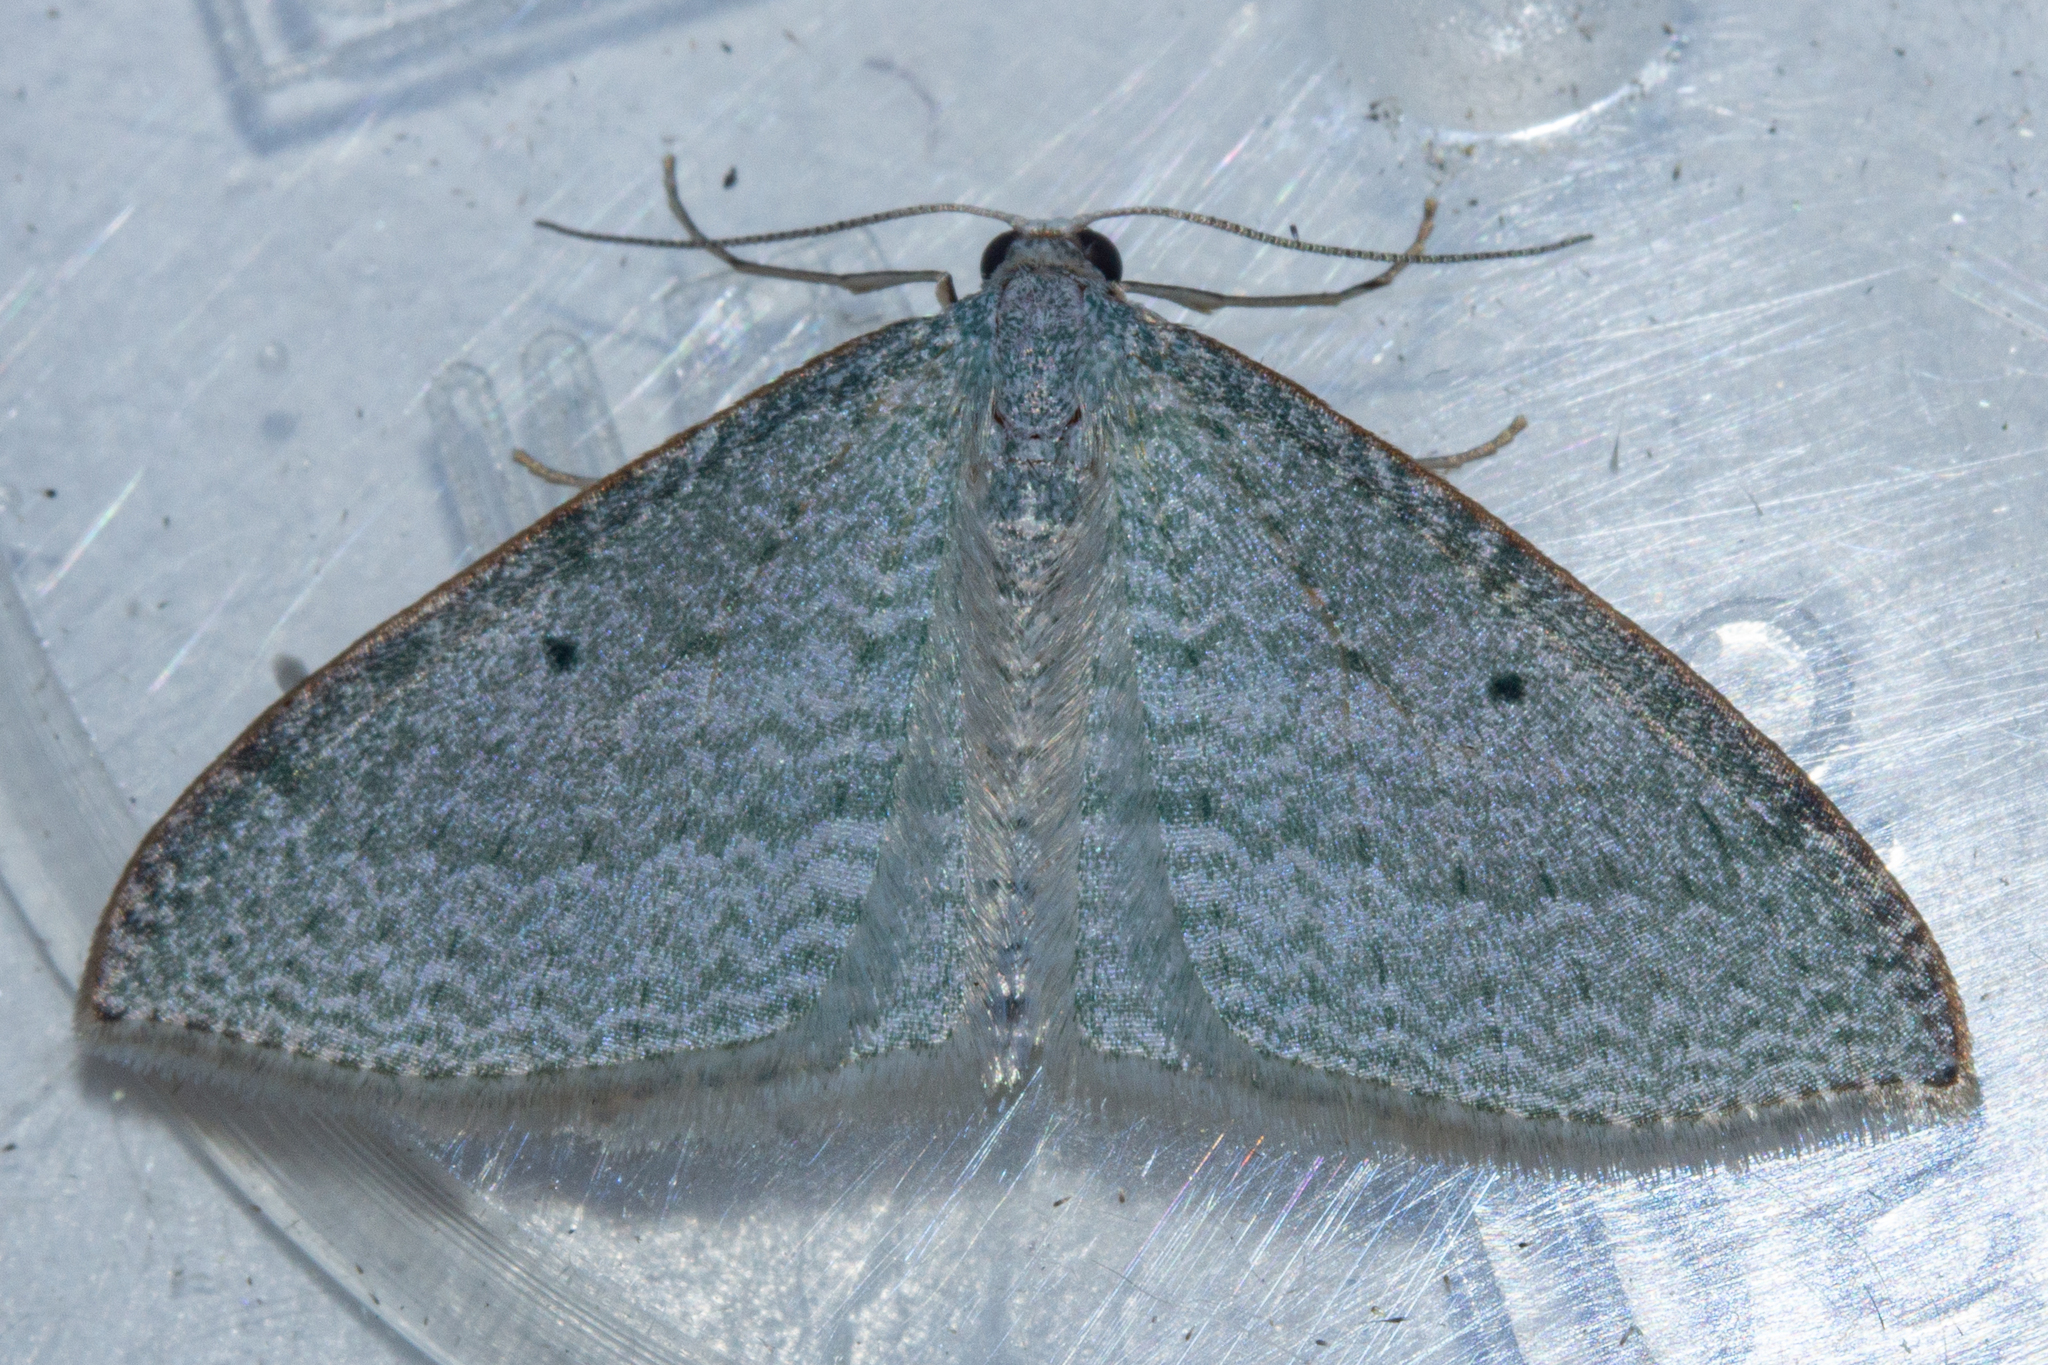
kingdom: Animalia
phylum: Arthropoda
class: Insecta
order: Lepidoptera
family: Geometridae
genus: Poecilasthena
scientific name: Poecilasthena pulchraria
